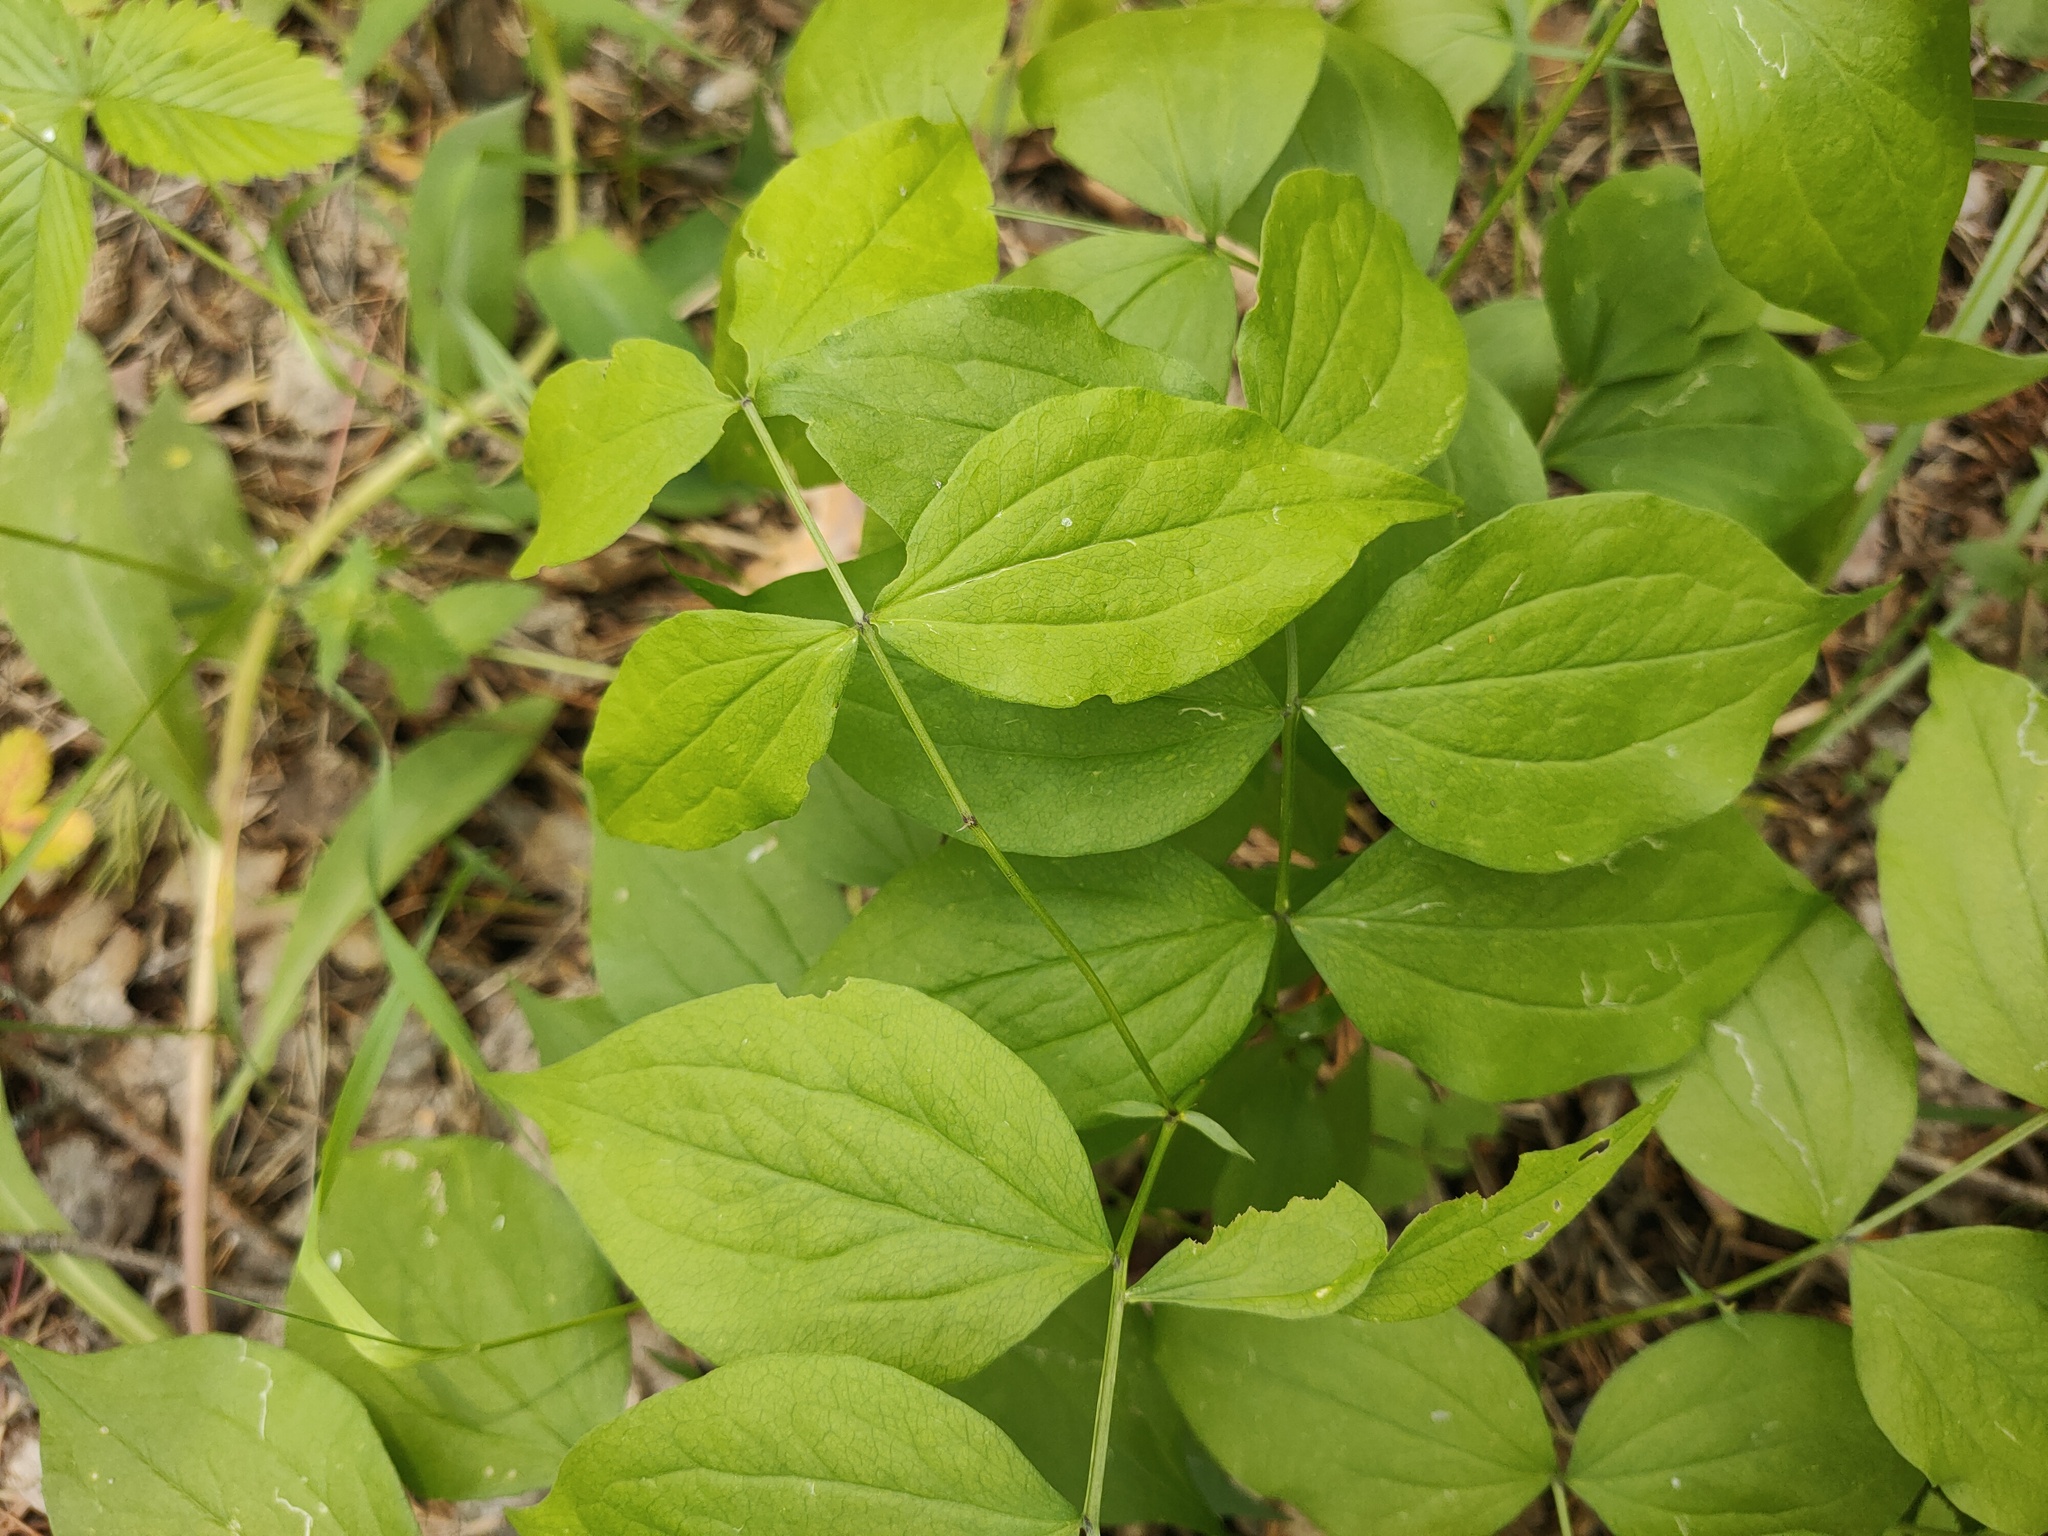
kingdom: Plantae
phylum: Tracheophyta
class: Magnoliopsida
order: Fabales
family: Fabaceae
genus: Lathyrus
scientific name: Lathyrus vernus
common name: Spring pea
